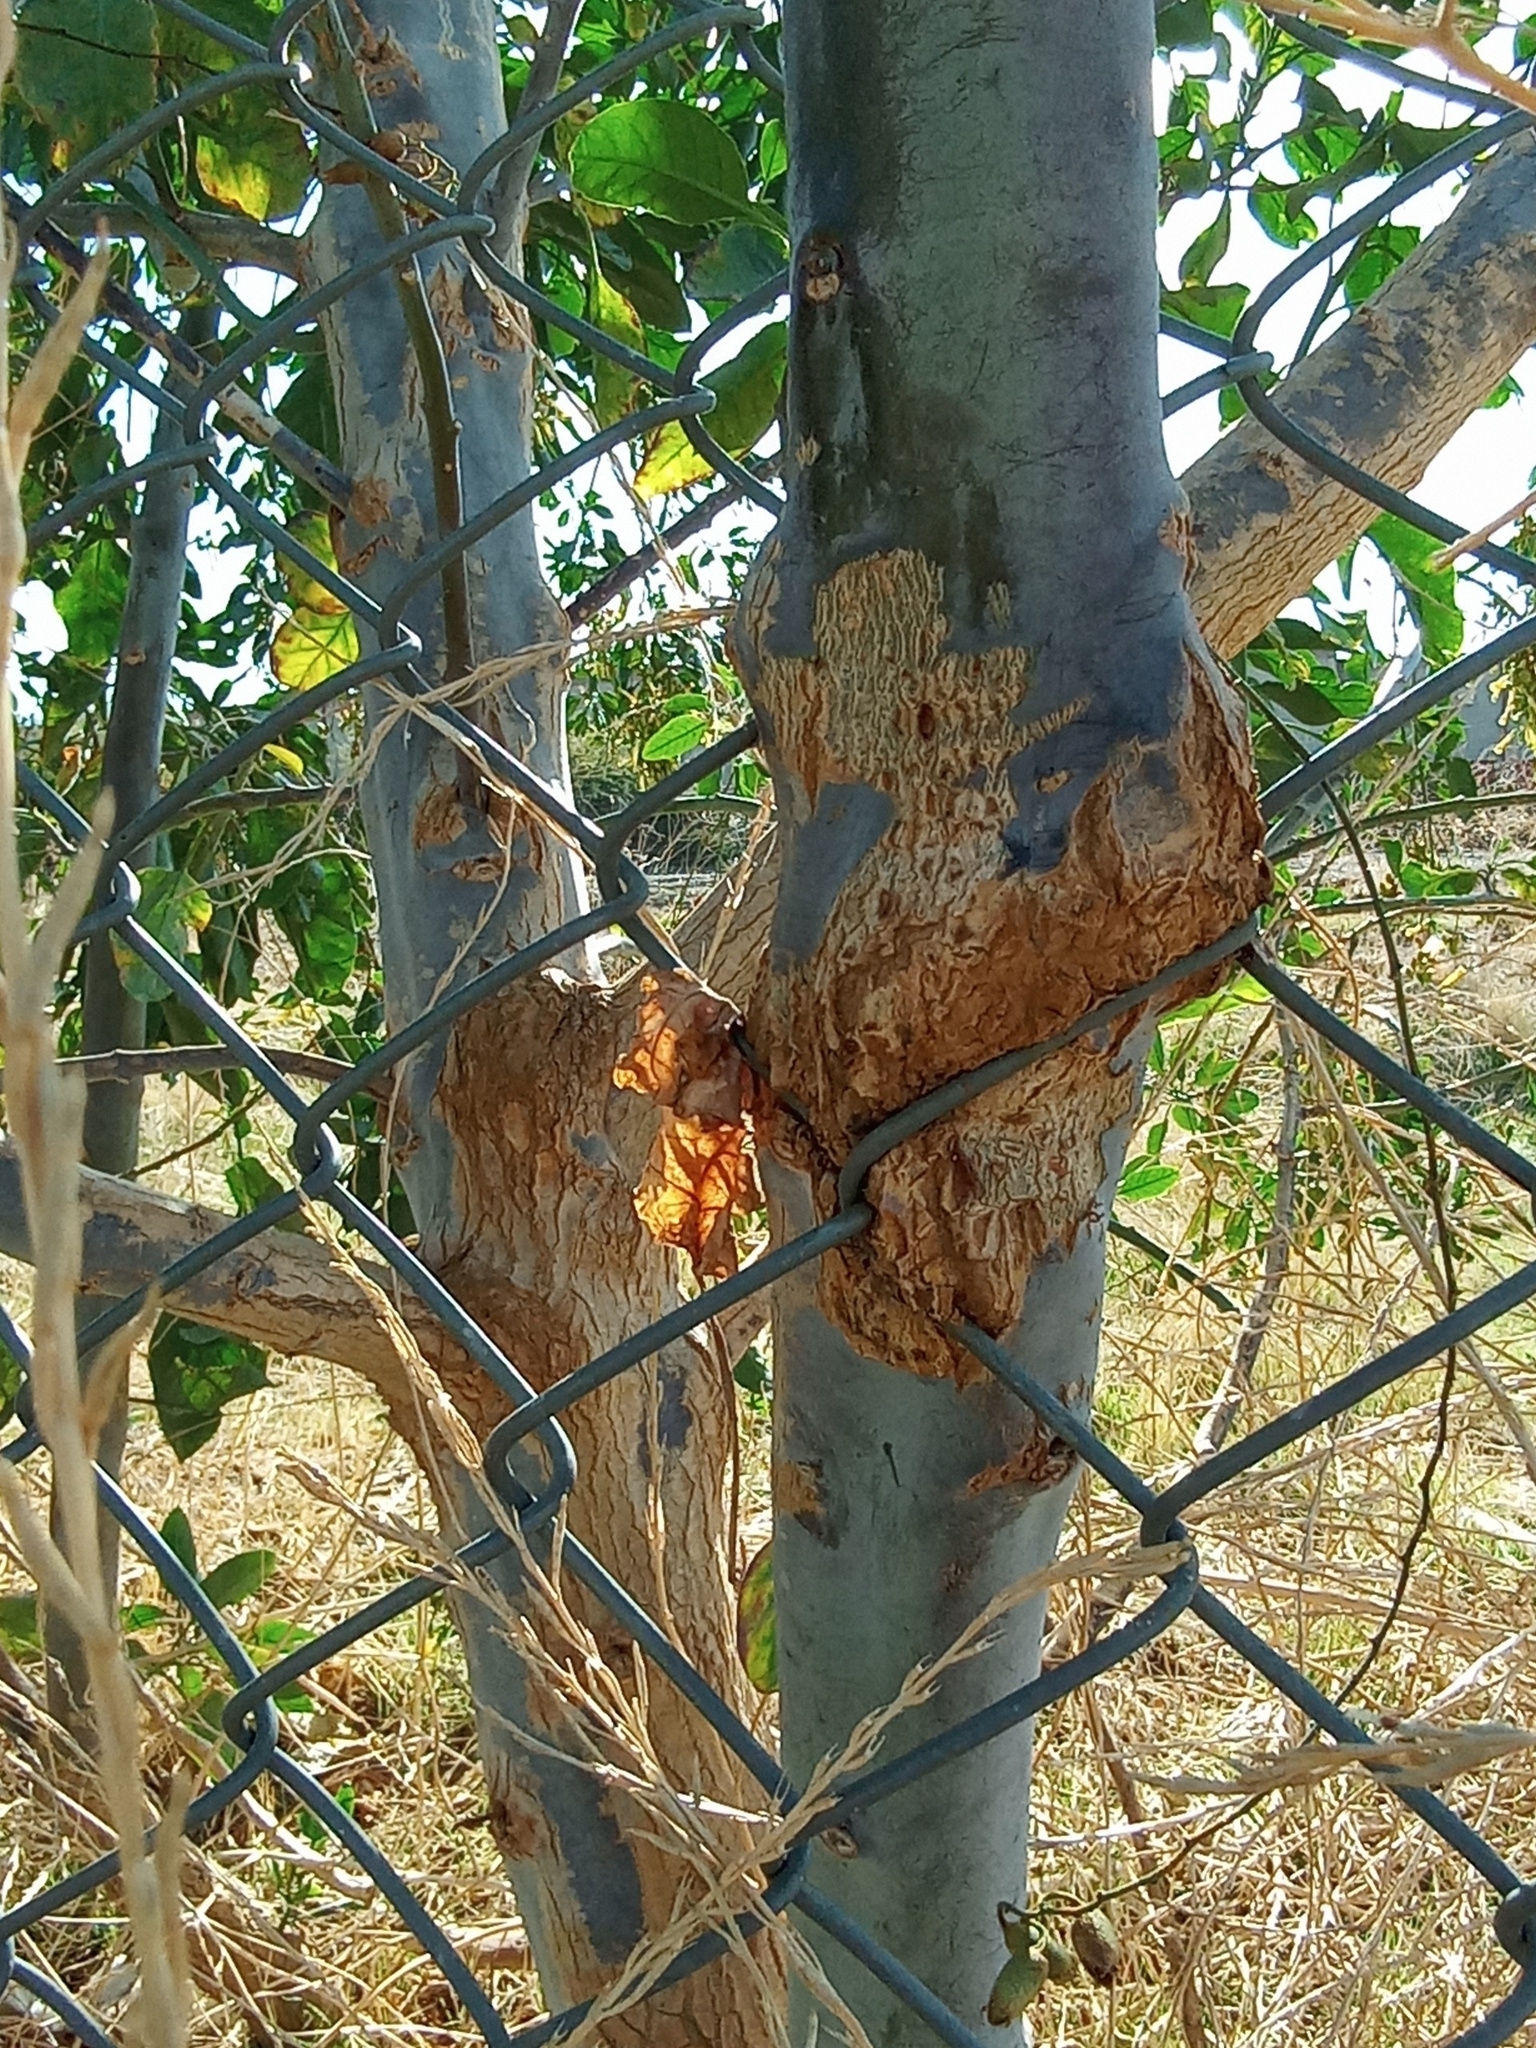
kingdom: Plantae
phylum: Tracheophyta
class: Magnoliopsida
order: Solanales
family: Solanaceae
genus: Nicotiana
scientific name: Nicotiana glauca
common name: Tree tobacco
